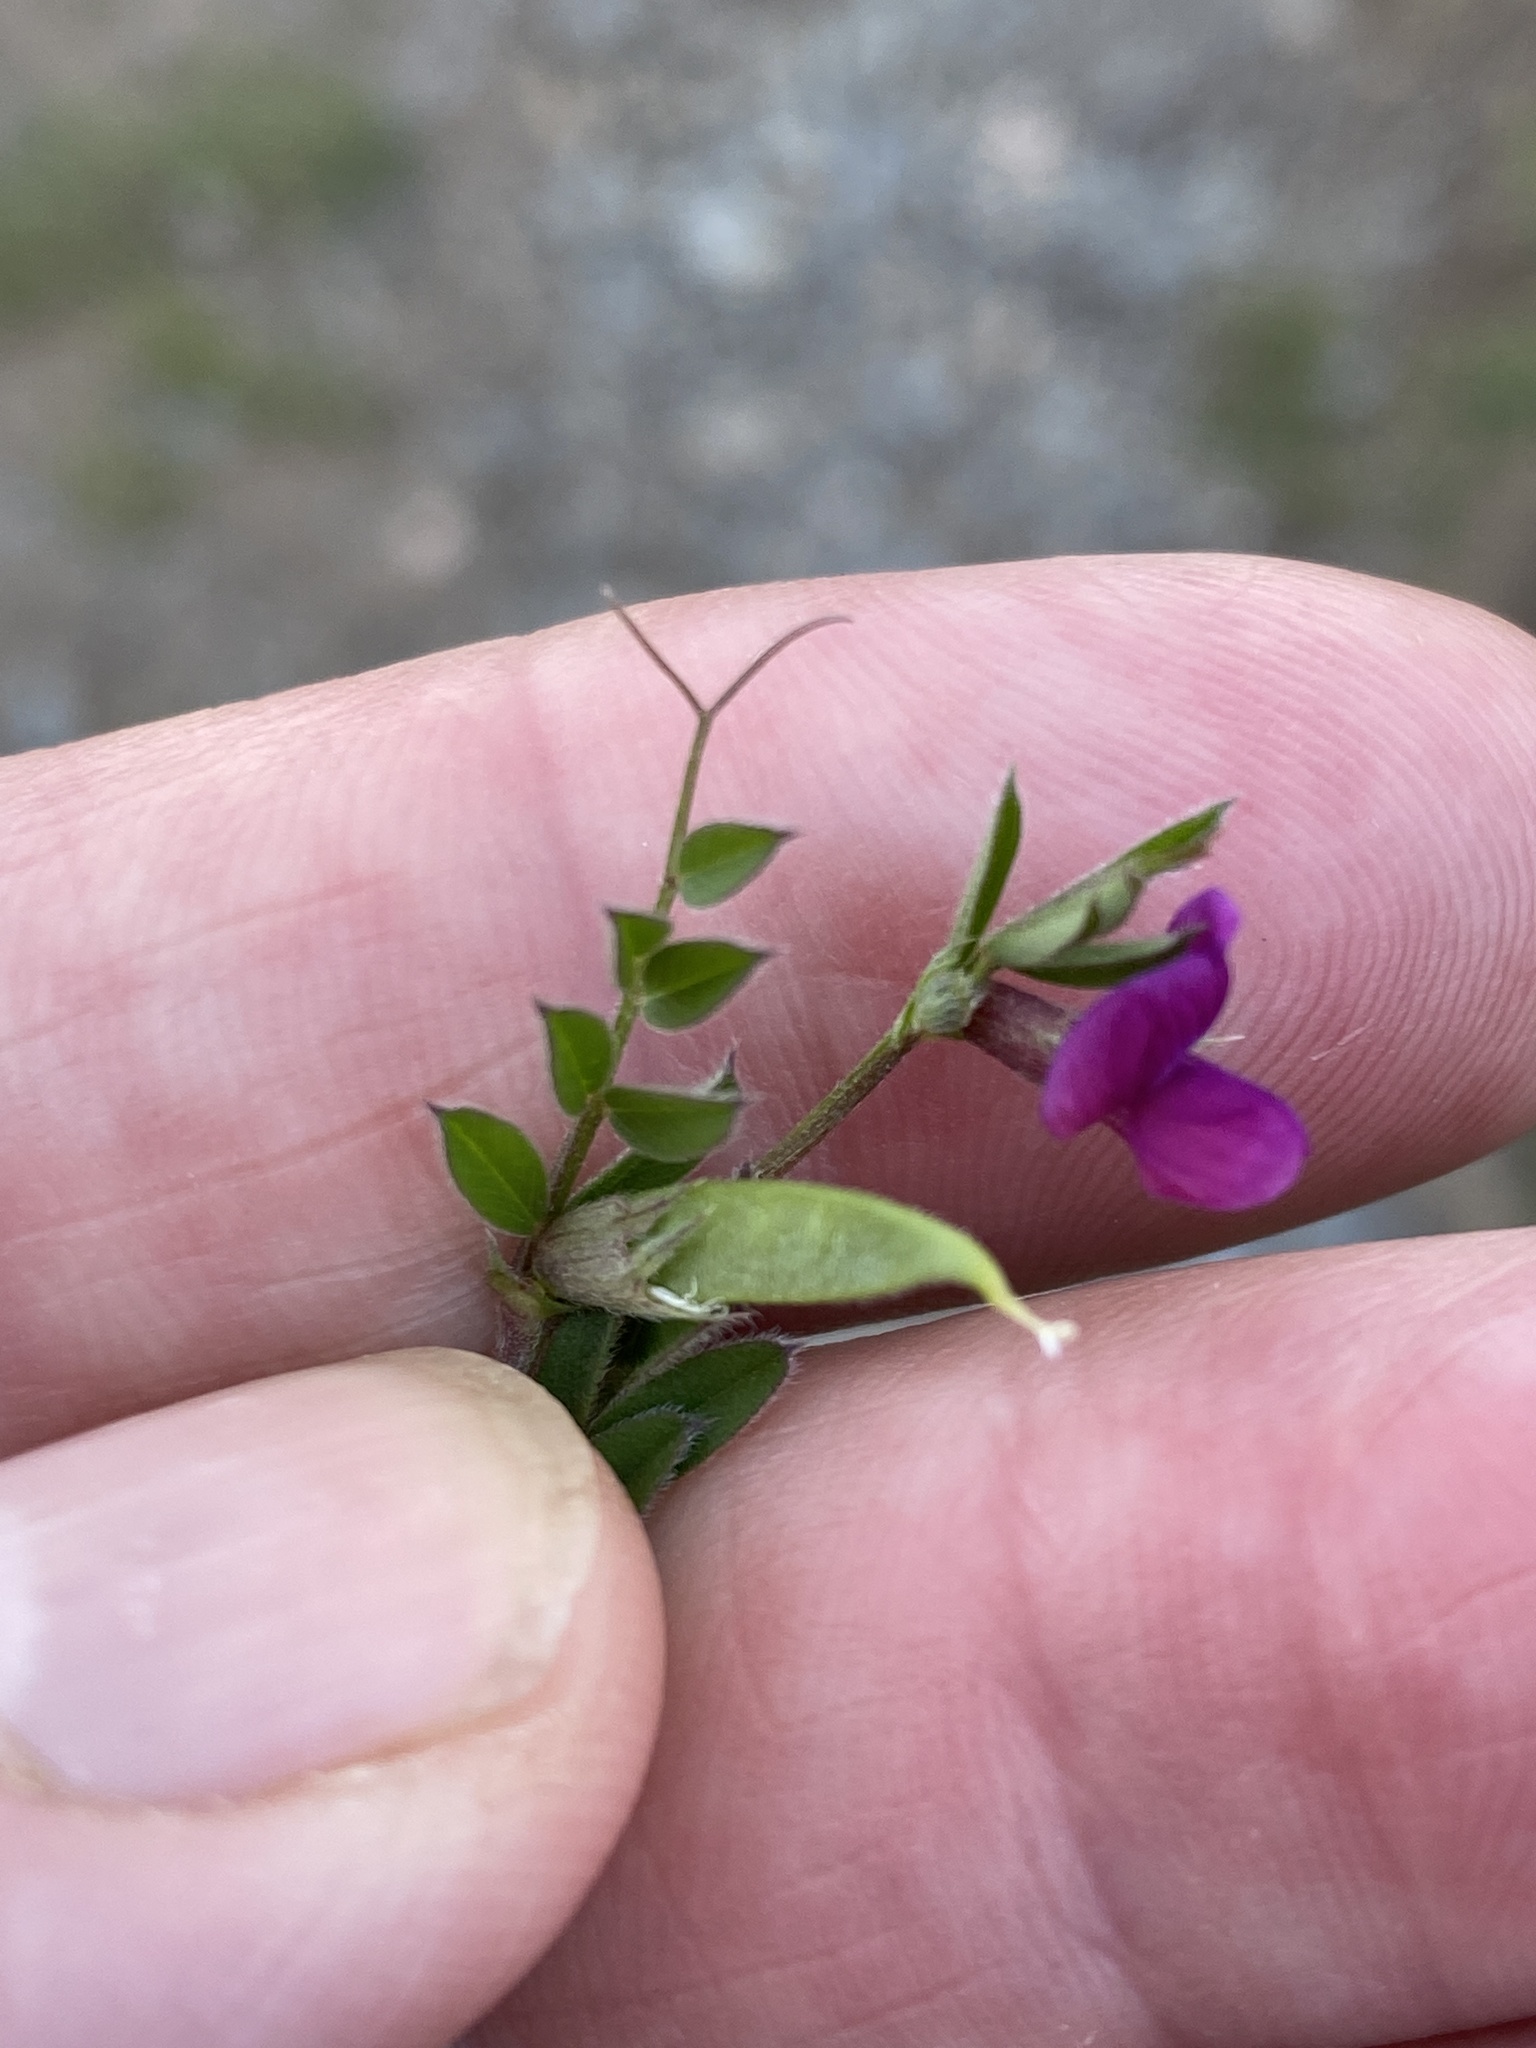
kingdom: Plantae
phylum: Tracheophyta
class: Magnoliopsida
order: Fabales
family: Fabaceae
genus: Vicia
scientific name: Vicia sativa
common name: Garden vetch
